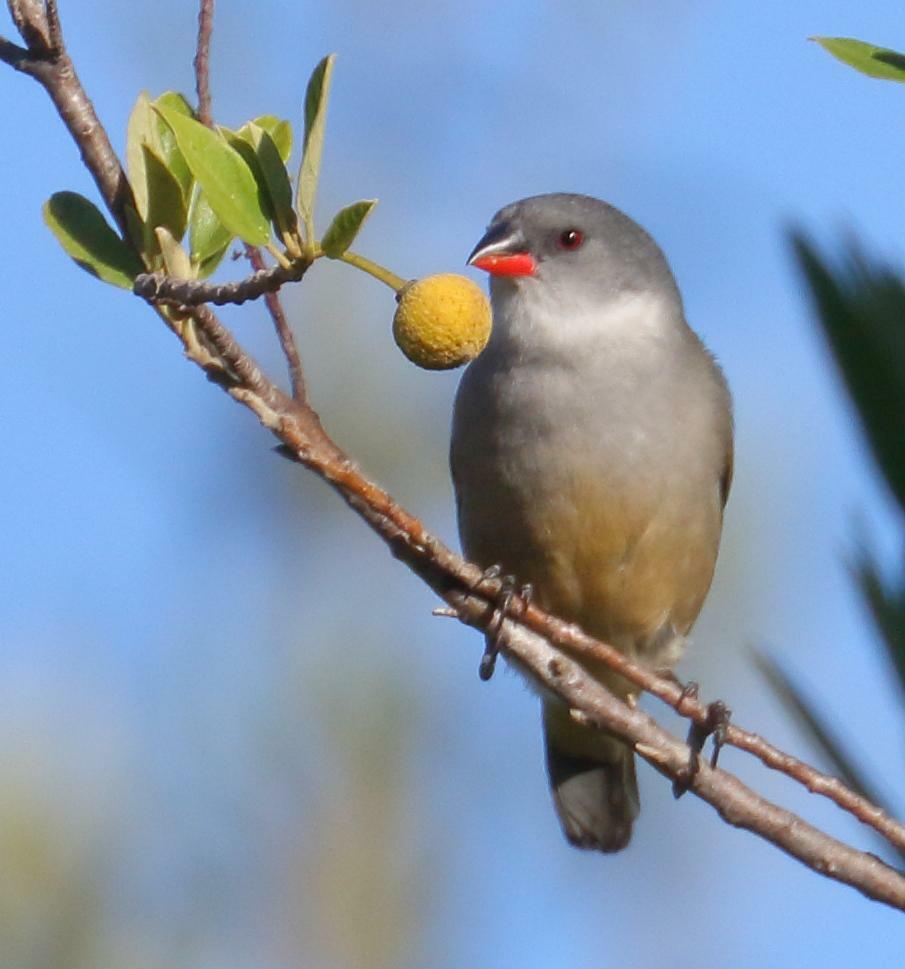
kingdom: Animalia
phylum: Chordata
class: Aves
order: Passeriformes
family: Estrildidae
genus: Coccopygia
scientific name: Coccopygia melanotis
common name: Swee waxbill
